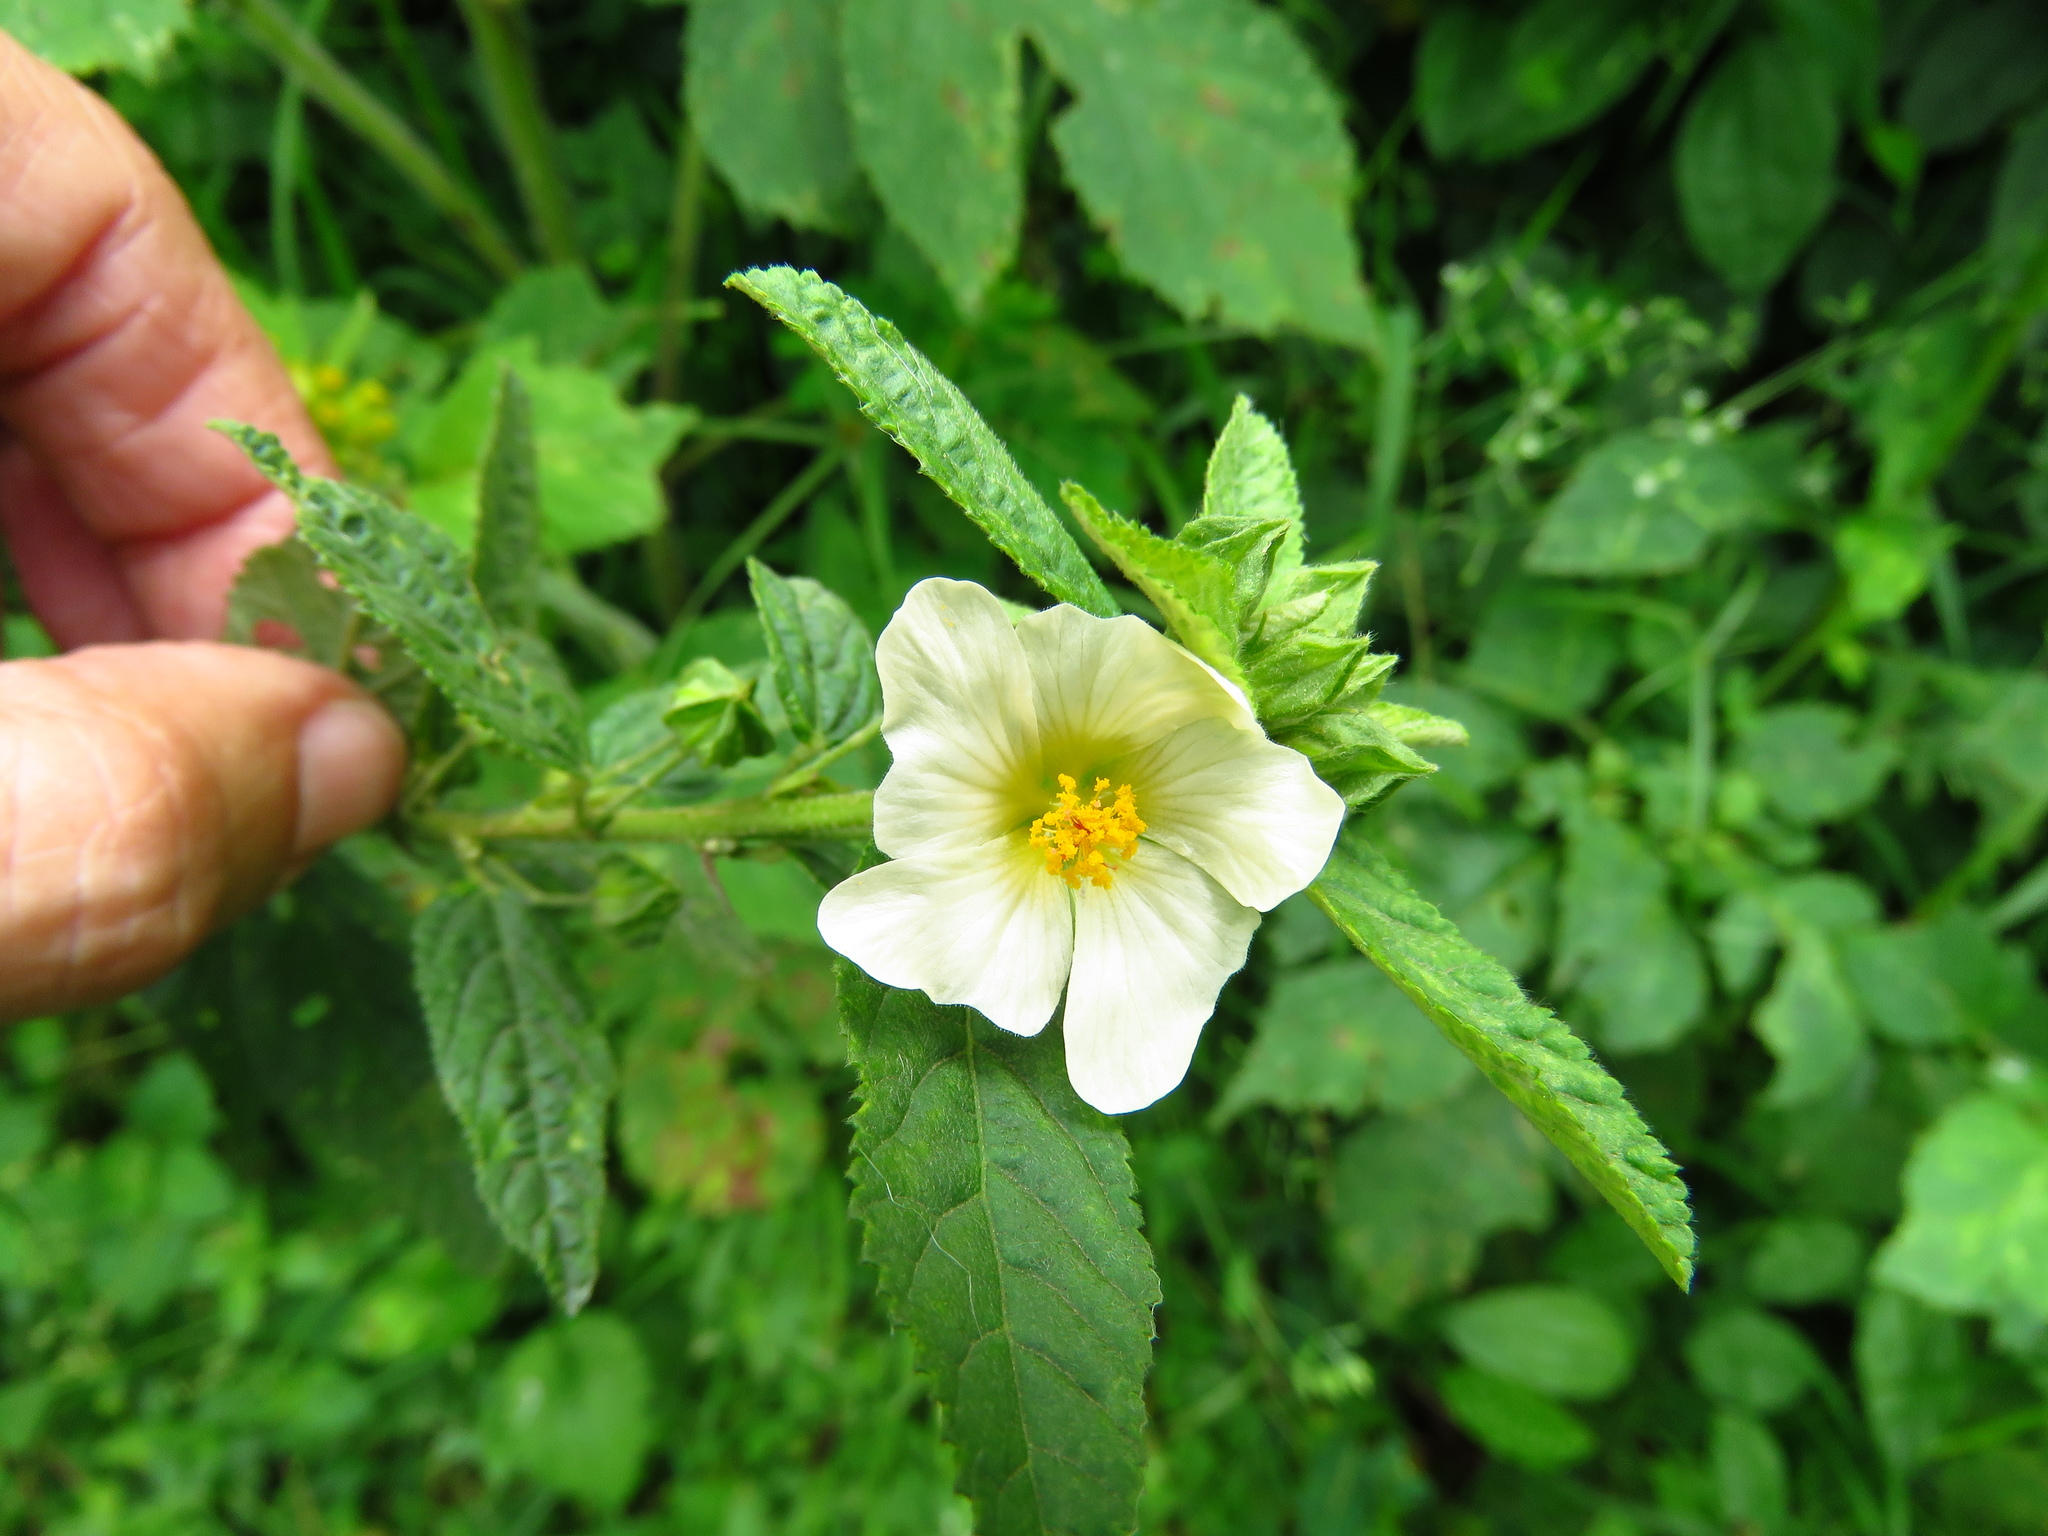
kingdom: Plantae
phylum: Tracheophyta
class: Magnoliopsida
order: Malvales
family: Malvaceae
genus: Sida
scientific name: Sida acuta
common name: Common wireweed
